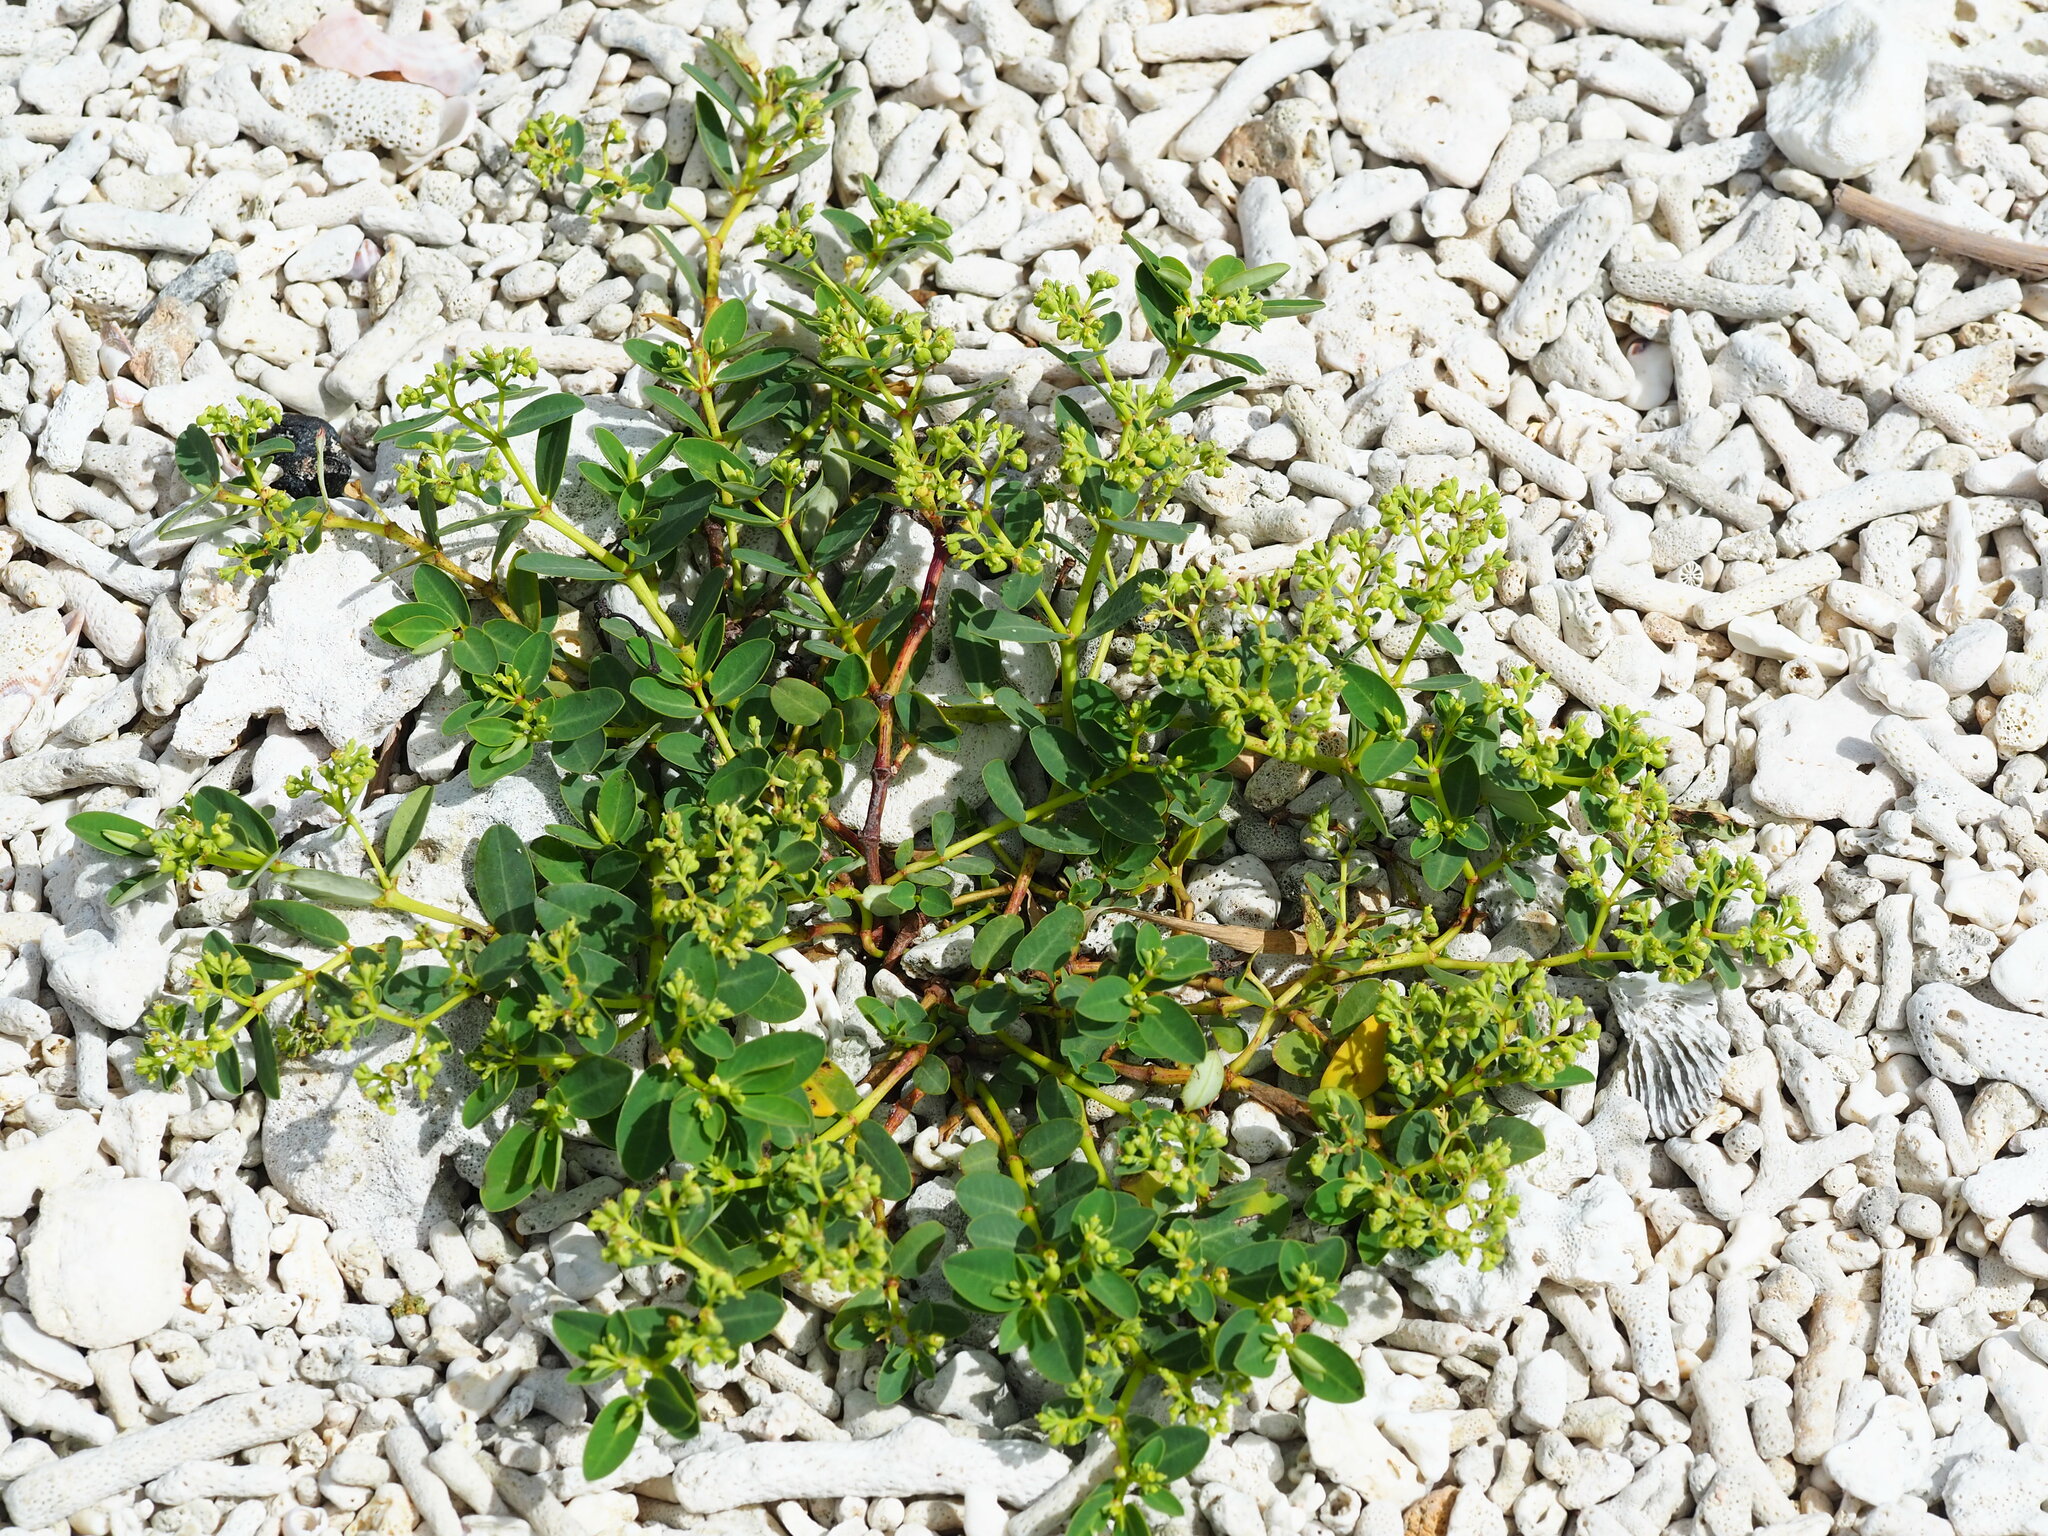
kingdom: Plantae
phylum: Tracheophyta
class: Magnoliopsida
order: Malpighiales
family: Euphorbiaceae
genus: Euphorbia
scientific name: Euphorbia atoto
